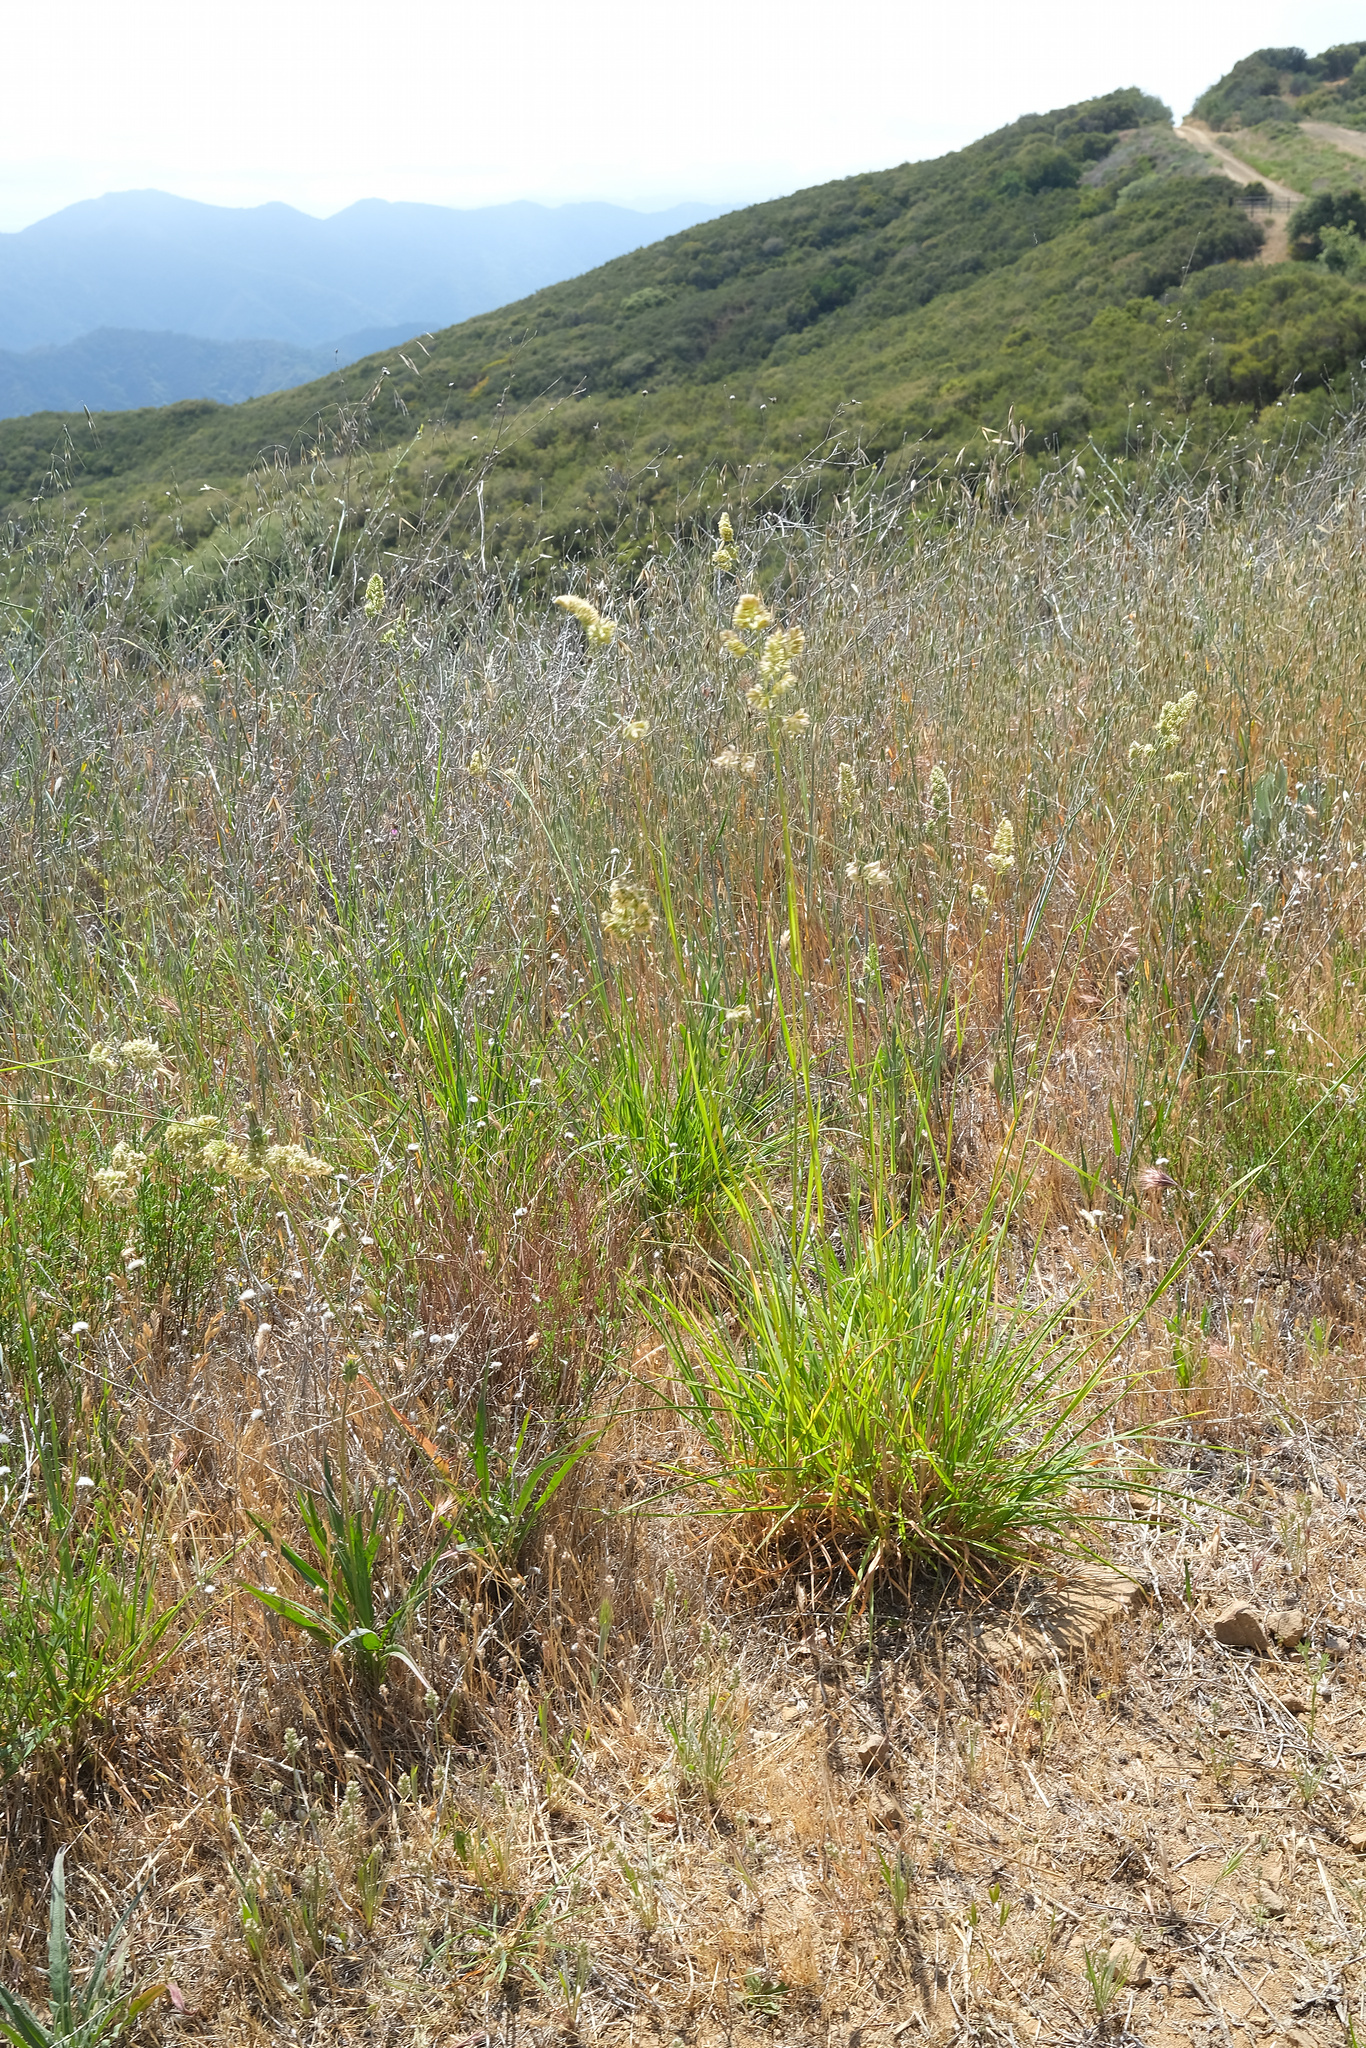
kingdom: Plantae
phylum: Tracheophyta
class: Liliopsida
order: Poales
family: Poaceae
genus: Dactylis
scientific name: Dactylis glomerata
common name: Orchardgrass
